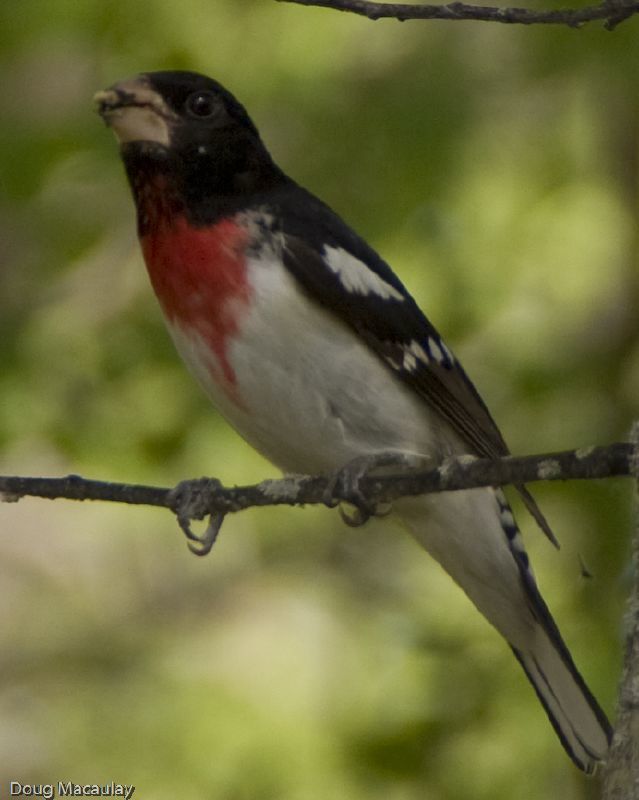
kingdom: Animalia
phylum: Chordata
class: Aves
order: Passeriformes
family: Cardinalidae
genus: Pheucticus
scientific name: Pheucticus ludovicianus
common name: Rose-breasted grosbeak
